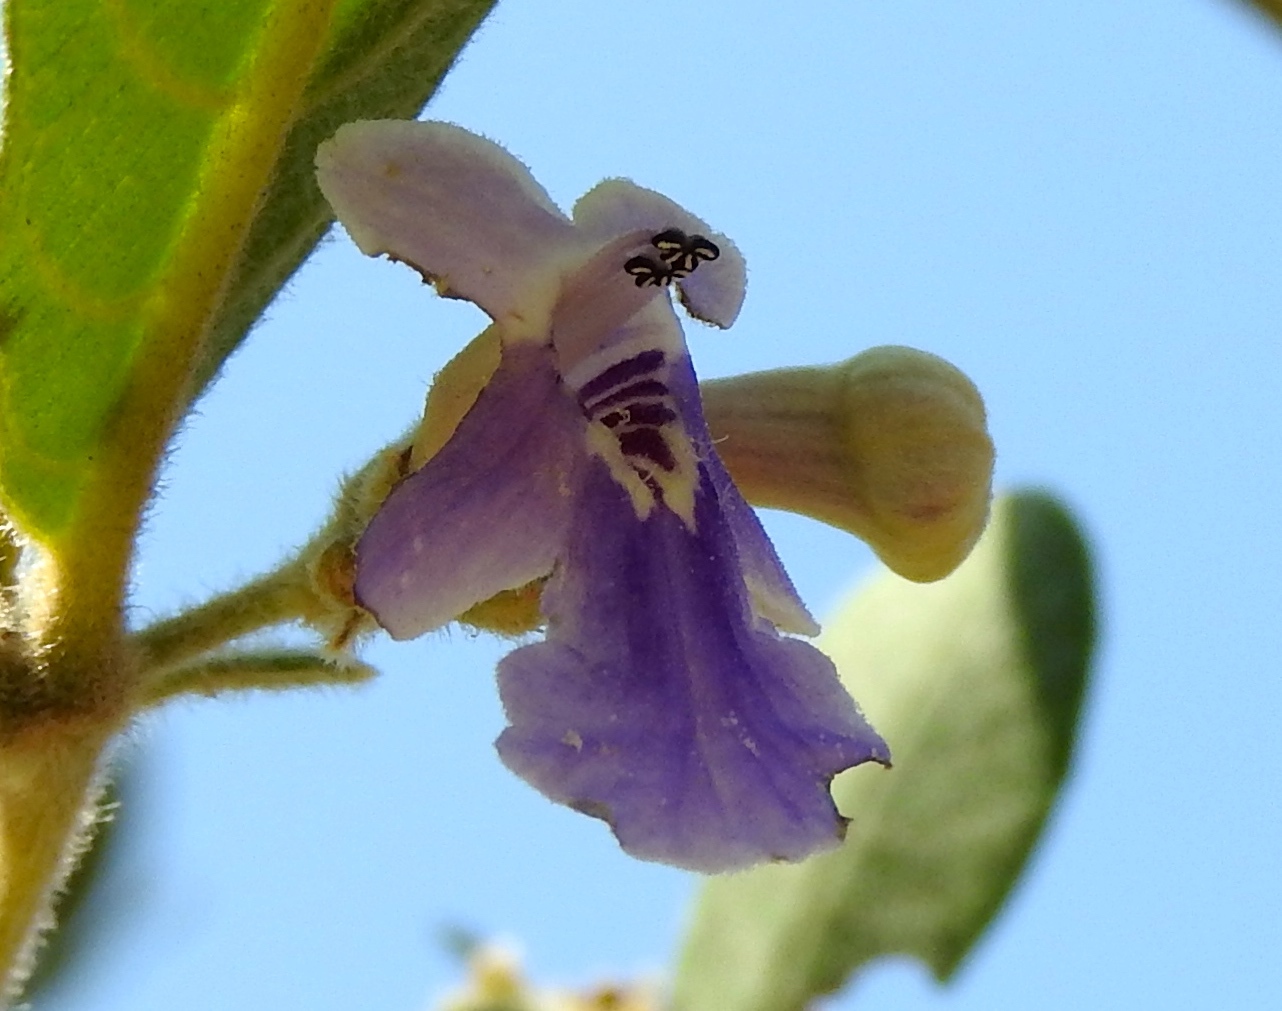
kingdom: Plantae
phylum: Tracheophyta
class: Magnoliopsida
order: Lamiales
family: Lamiaceae
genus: Vitex
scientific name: Vitex mollis
